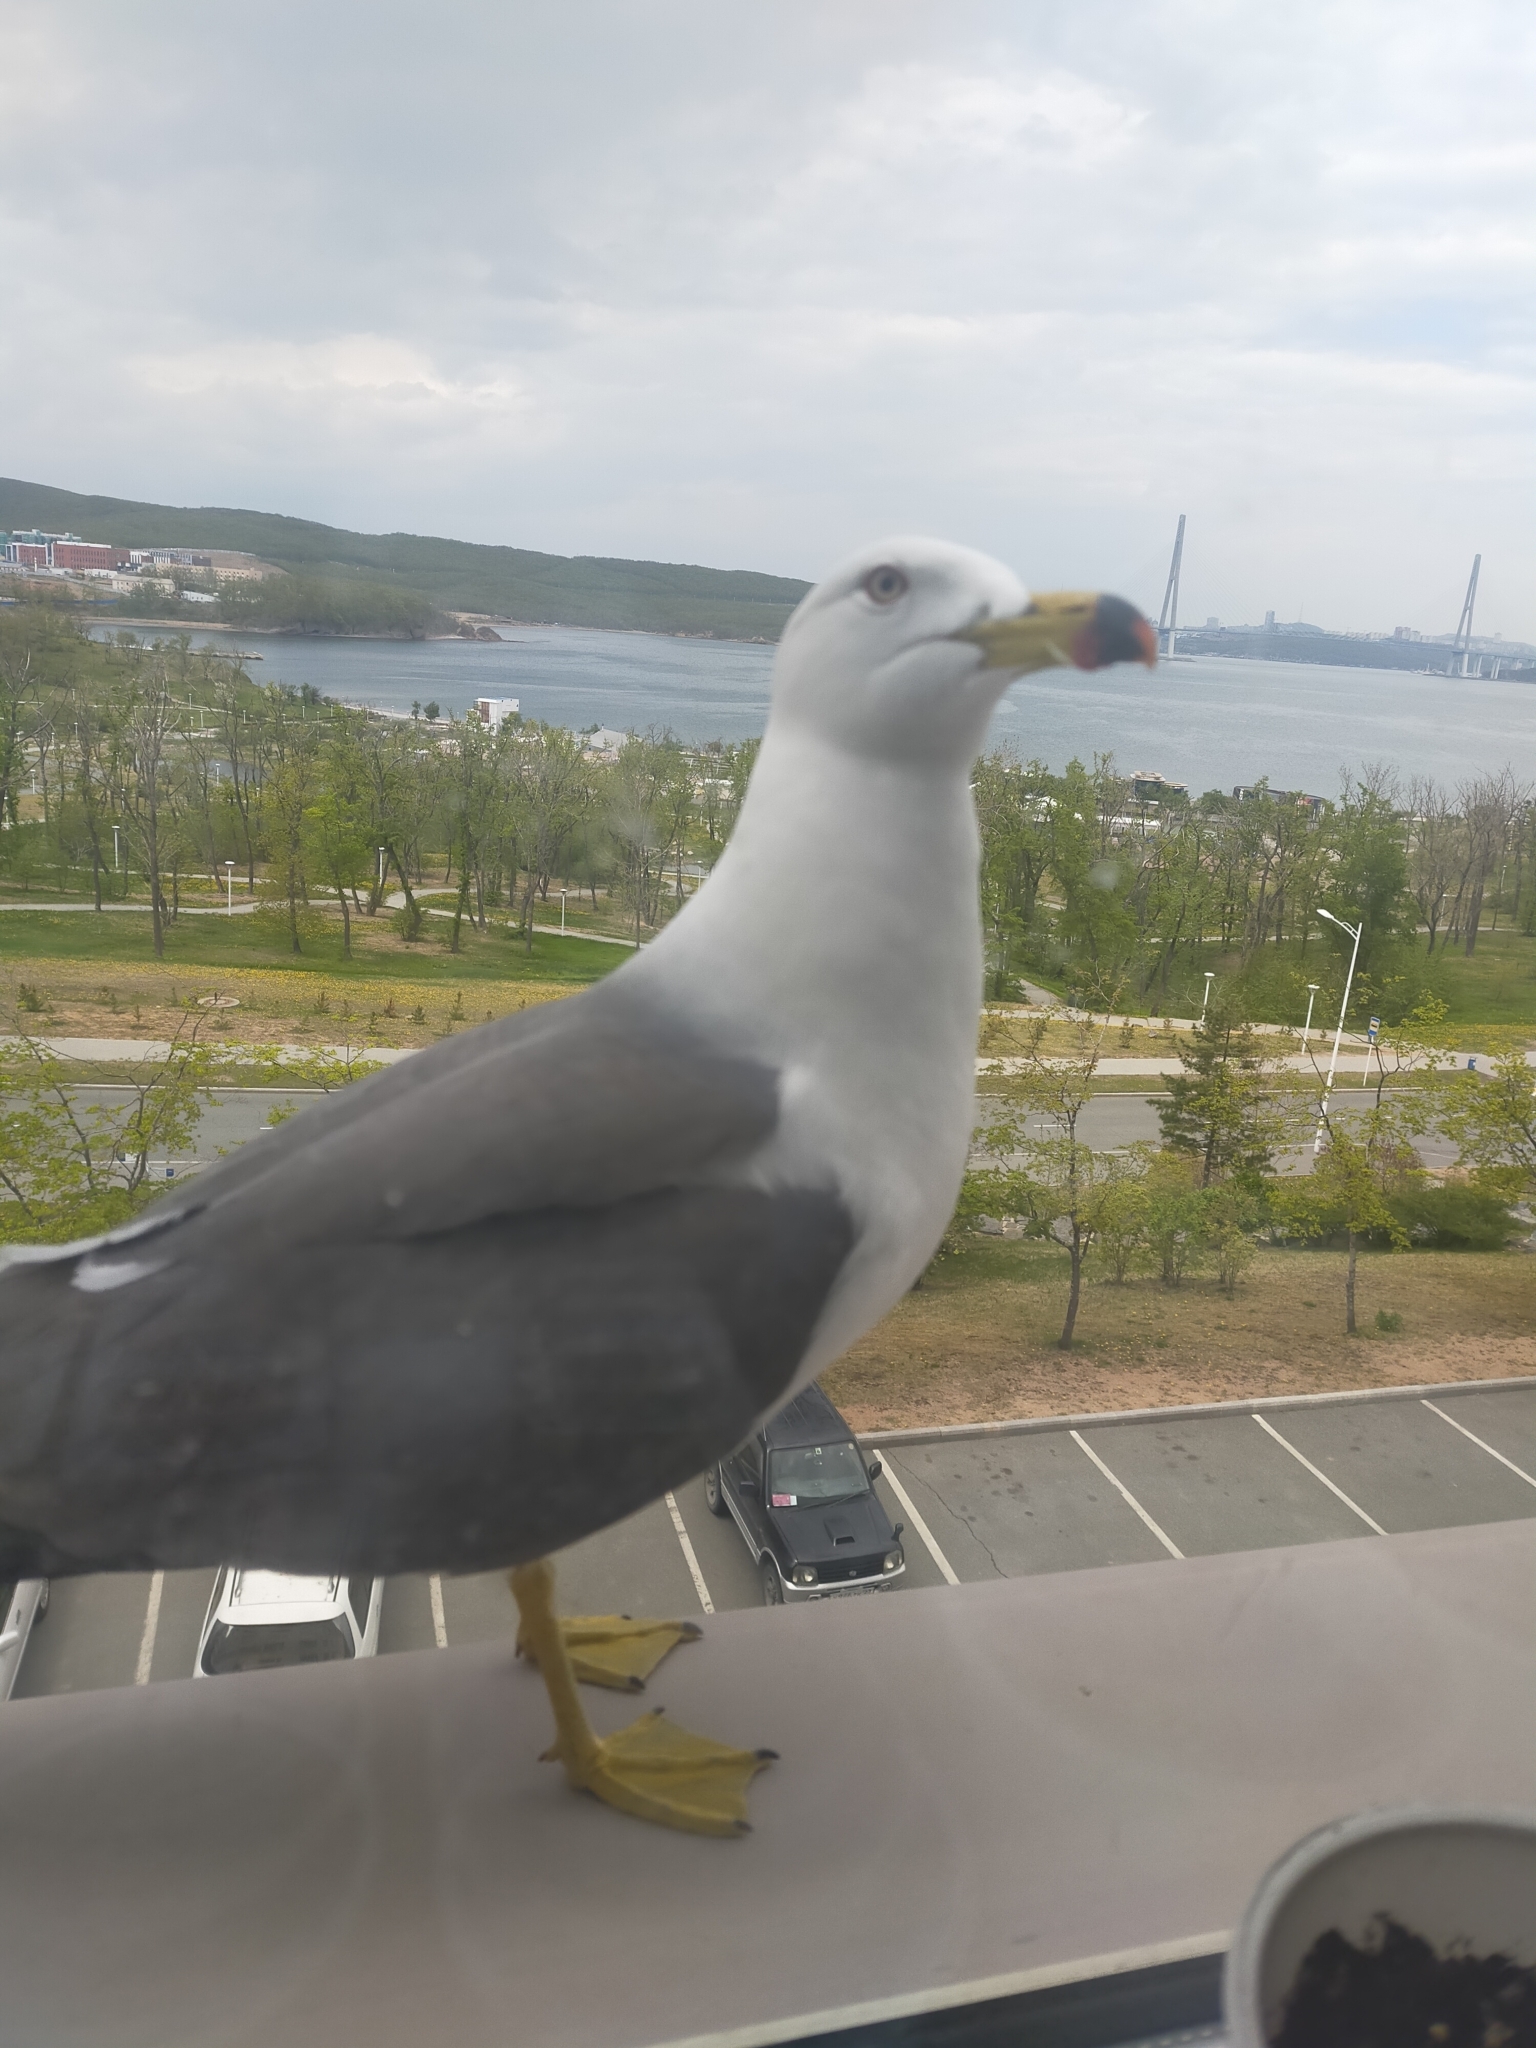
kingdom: Animalia
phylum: Chordata
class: Aves
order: Charadriiformes
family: Laridae
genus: Larus
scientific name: Larus crassirostris
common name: Black-tailed gull
